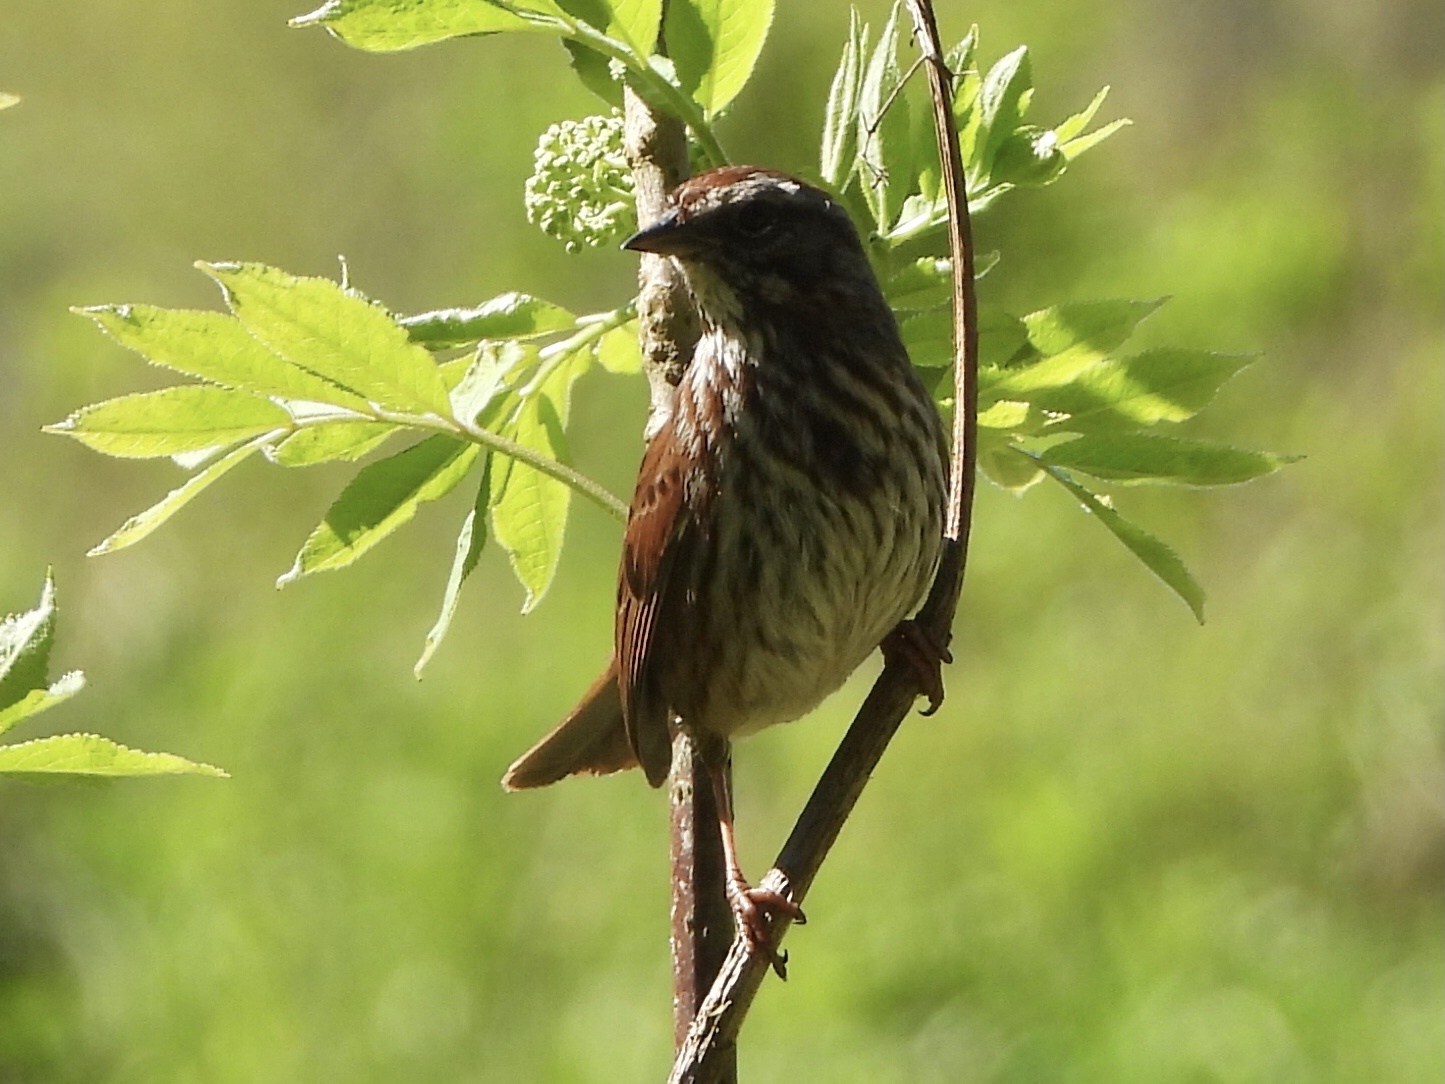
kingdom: Animalia
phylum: Chordata
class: Aves
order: Passeriformes
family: Passerellidae
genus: Melospiza
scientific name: Melospiza melodia
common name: Song sparrow
